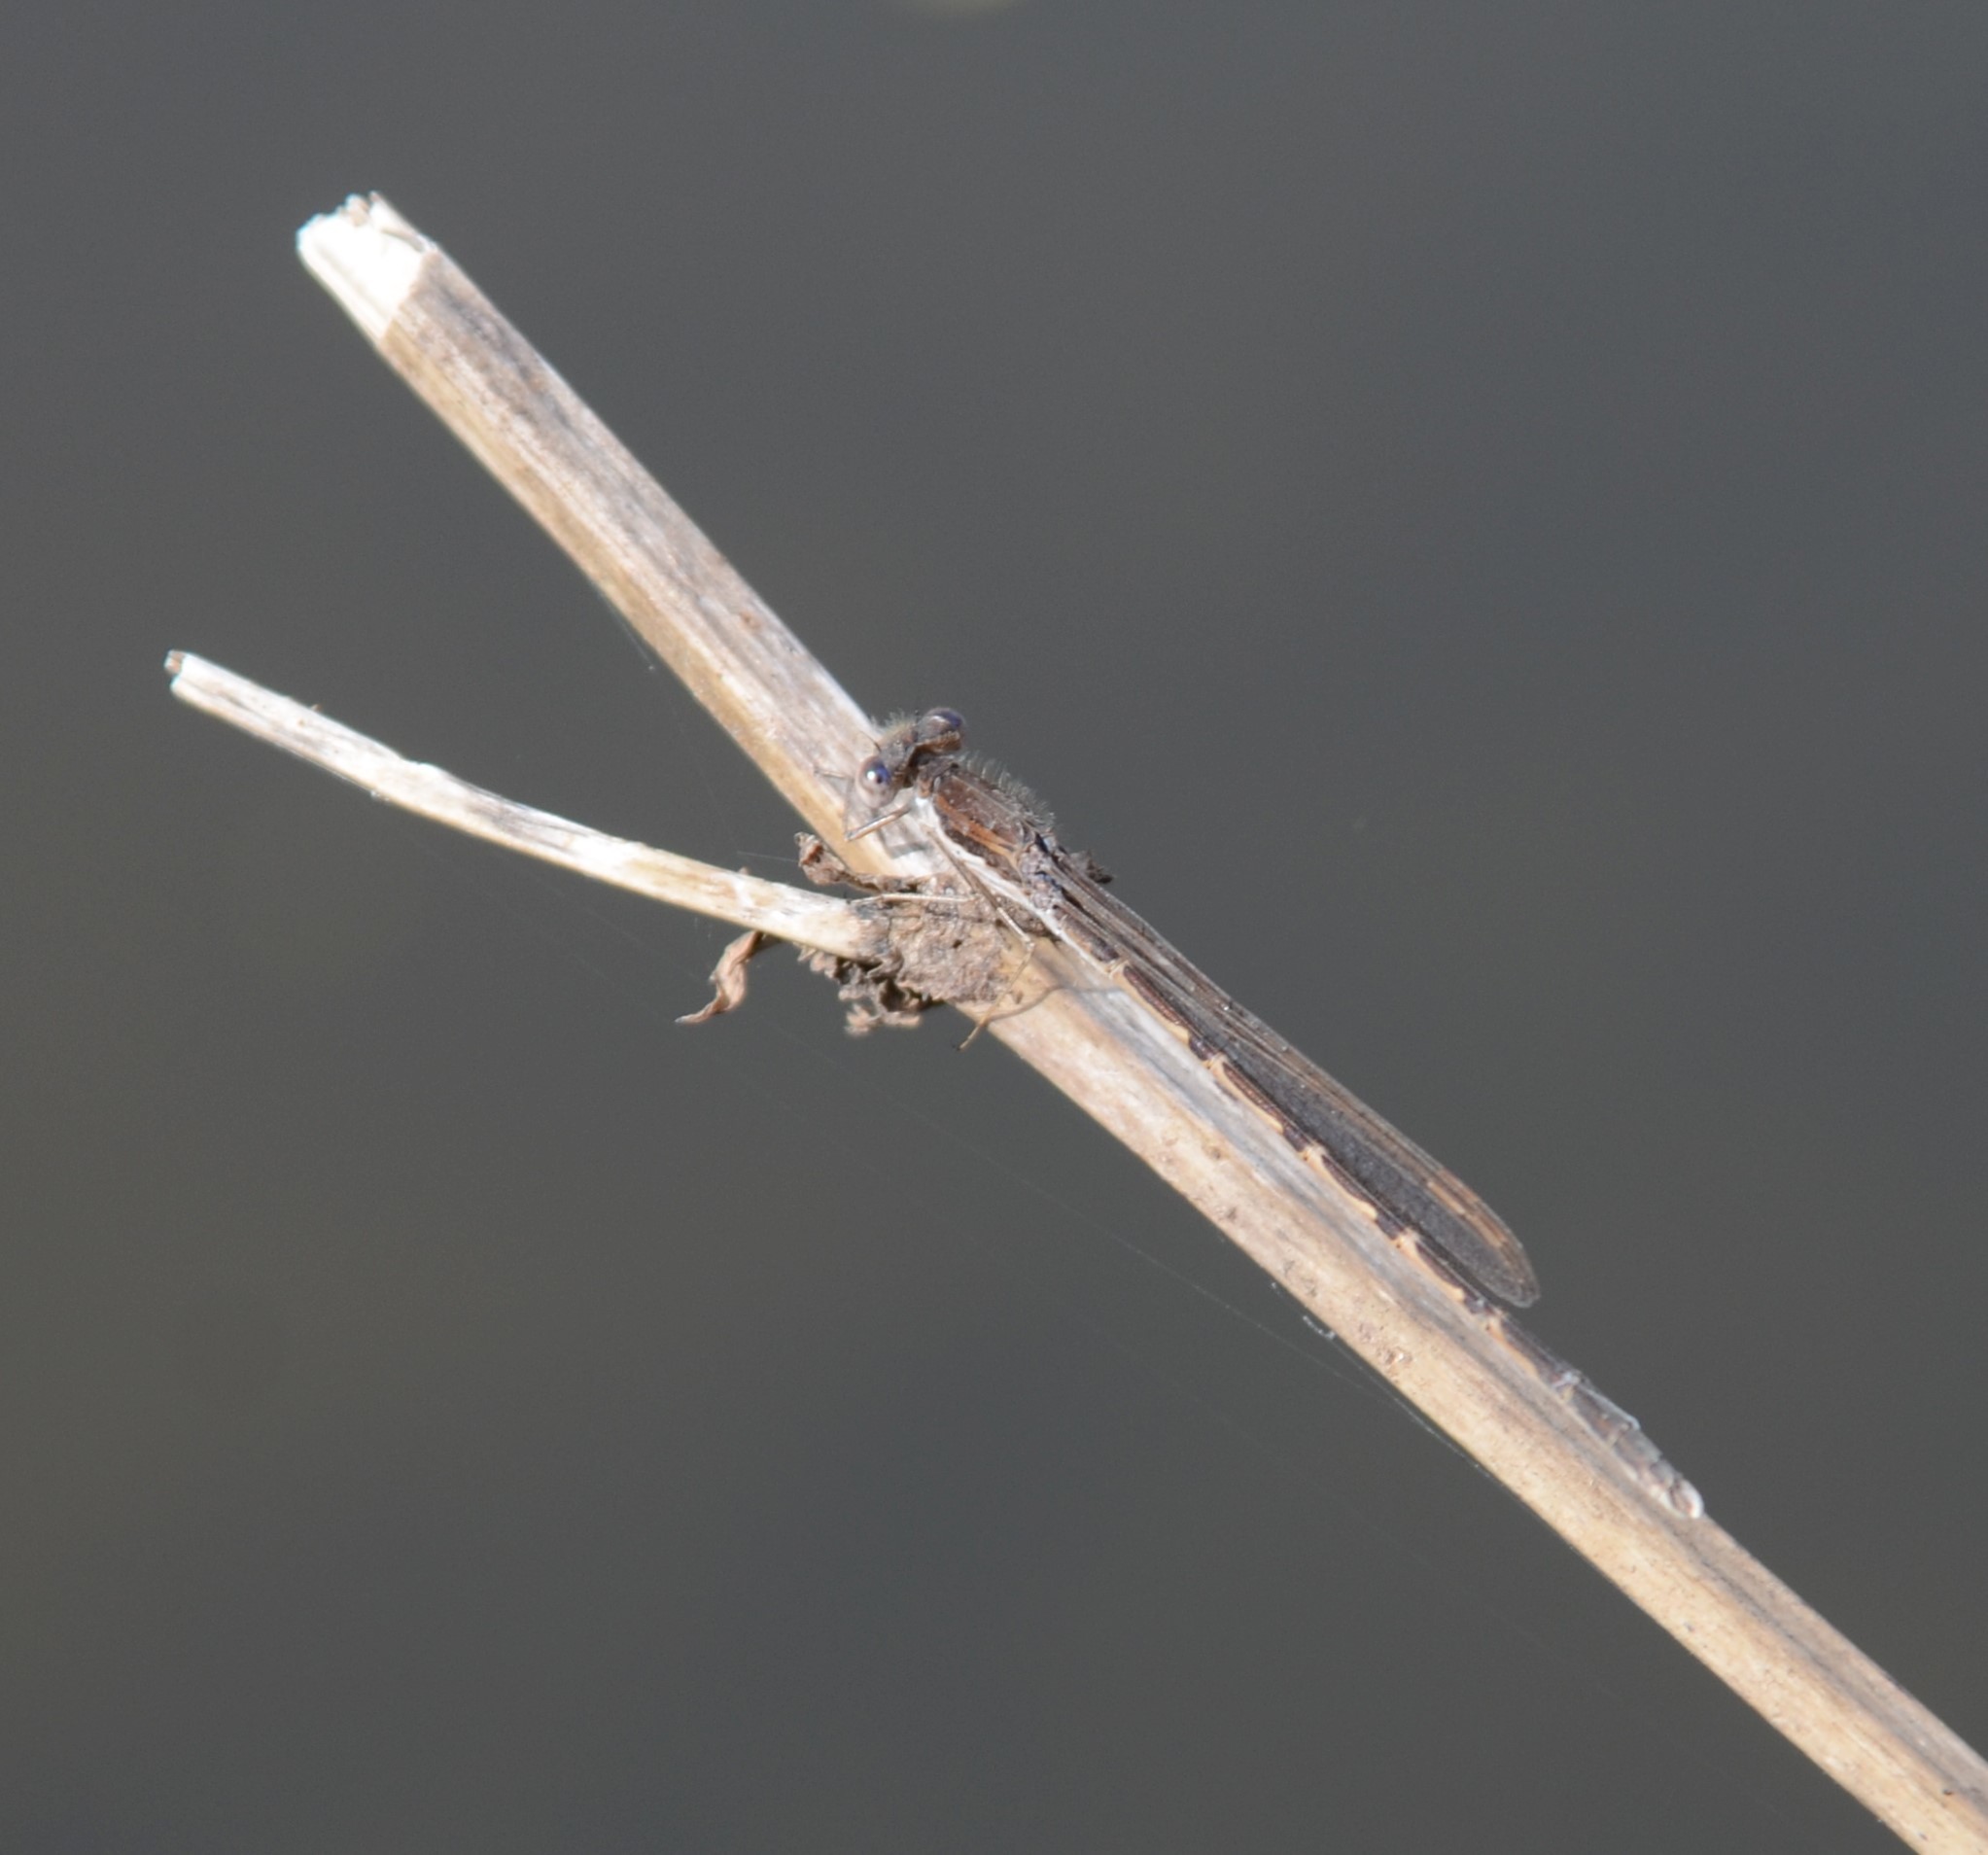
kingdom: Animalia
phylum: Arthropoda
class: Insecta
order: Odonata
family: Lestidae
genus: Sympecma
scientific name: Sympecma fusca
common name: Common winter damsel
